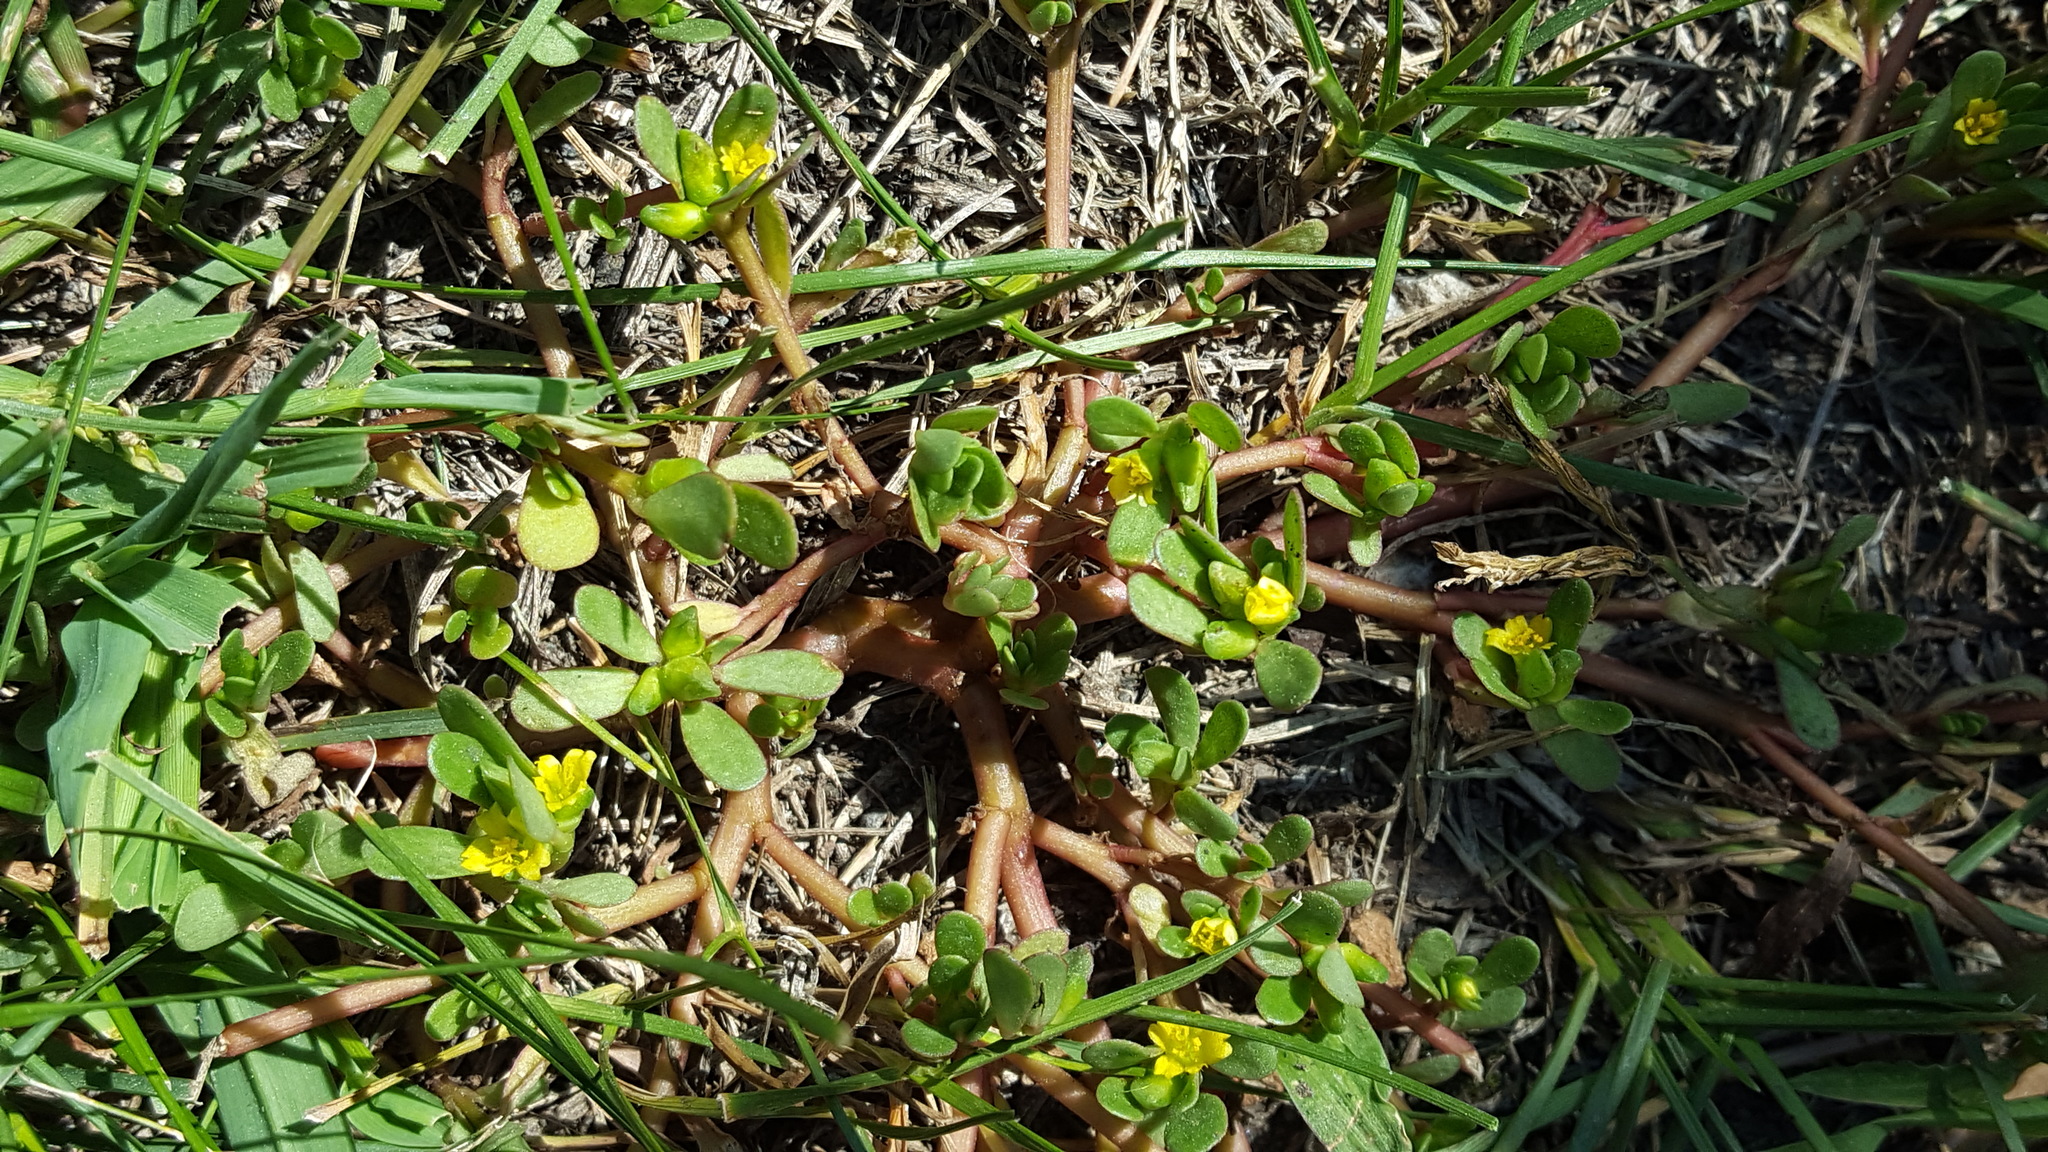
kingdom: Plantae
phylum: Tracheophyta
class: Magnoliopsida
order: Caryophyllales
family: Portulacaceae
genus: Portulaca
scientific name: Portulaca oleracea
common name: Common purslane
